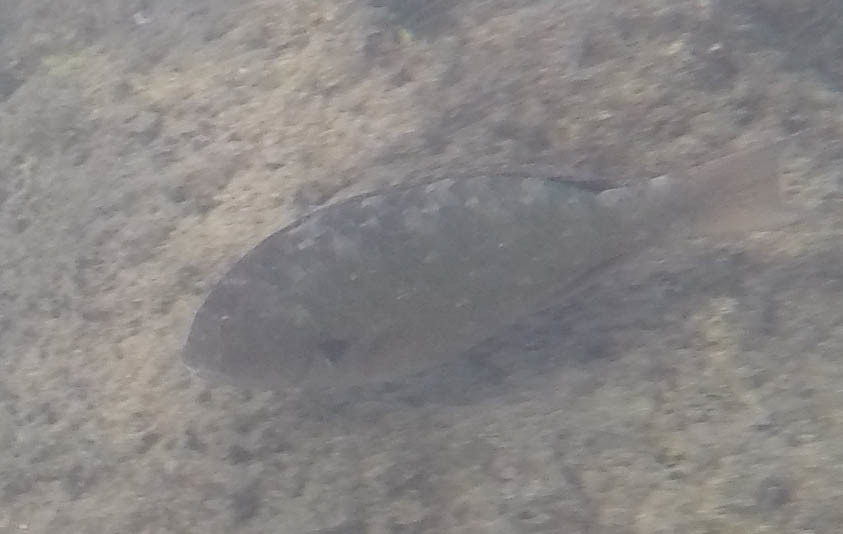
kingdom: Animalia
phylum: Chordata
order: Perciformes
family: Scaridae
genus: Calotomus
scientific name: Calotomus carolinus
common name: Bucktooth
